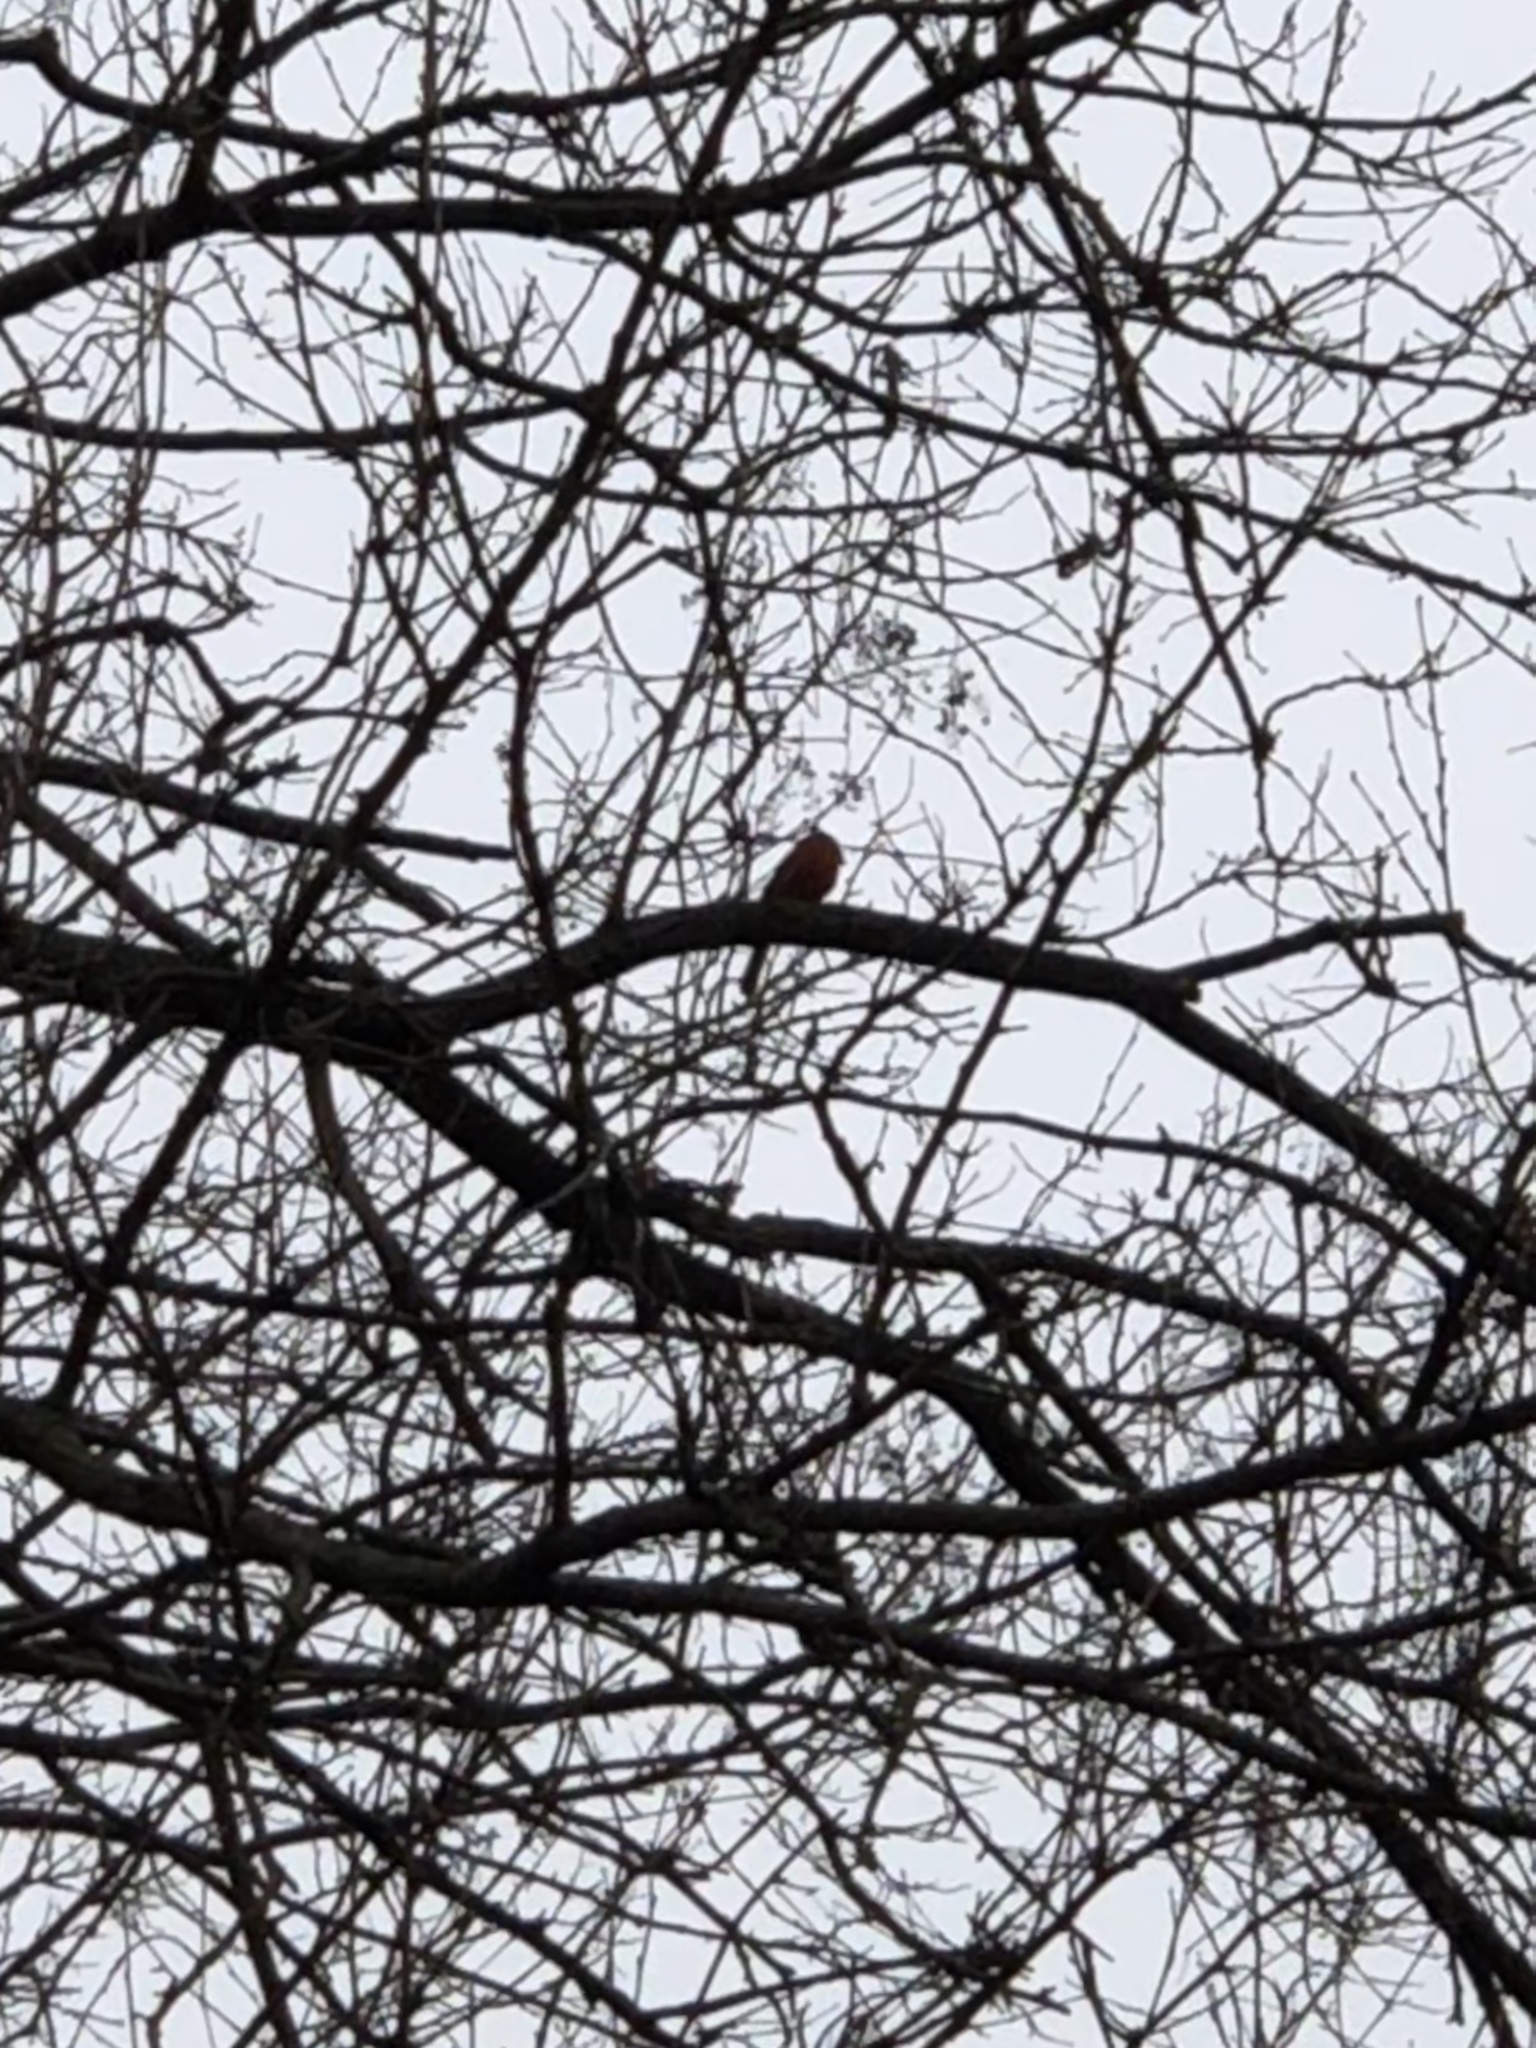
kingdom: Animalia
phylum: Chordata
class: Aves
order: Passeriformes
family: Cardinalidae
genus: Cardinalis
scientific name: Cardinalis cardinalis
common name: Northern cardinal
